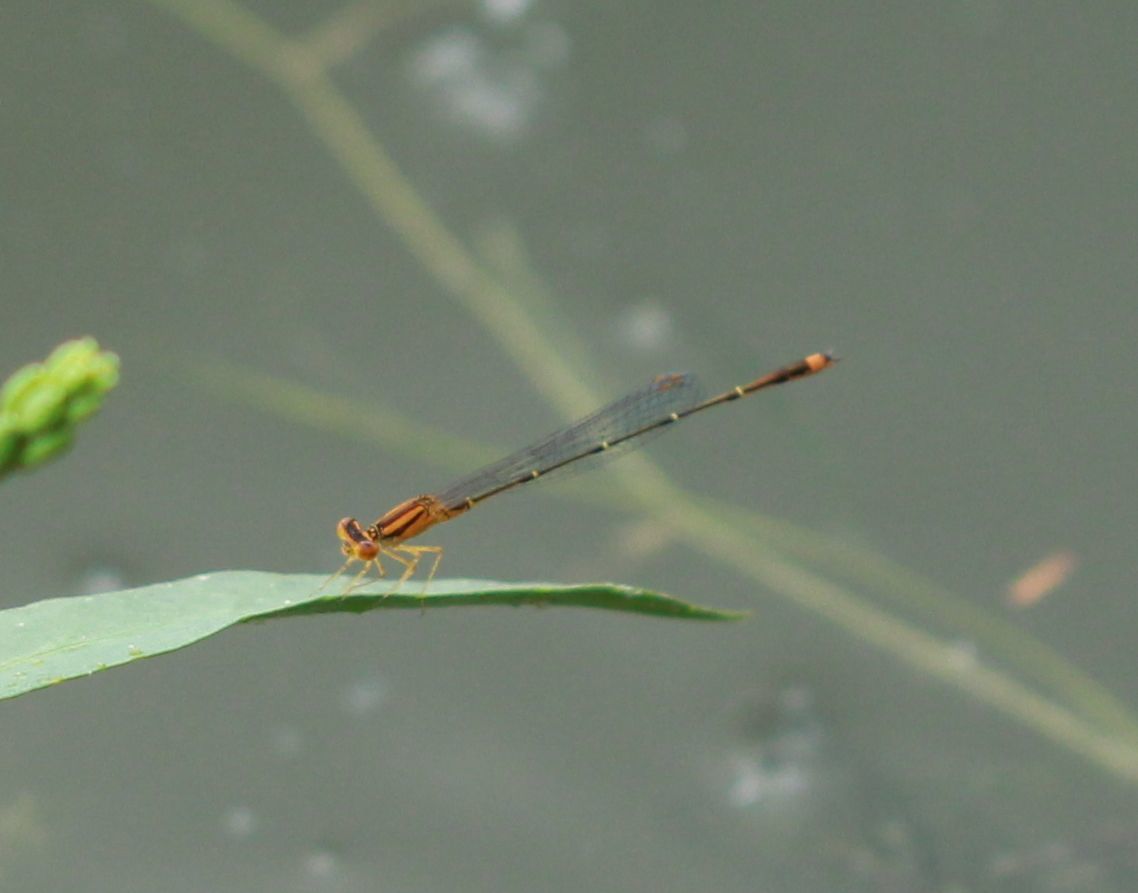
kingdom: Animalia
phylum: Arthropoda
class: Insecta
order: Odonata
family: Coenagrionidae
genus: Enallagma
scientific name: Enallagma signatum
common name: Orange bluet
